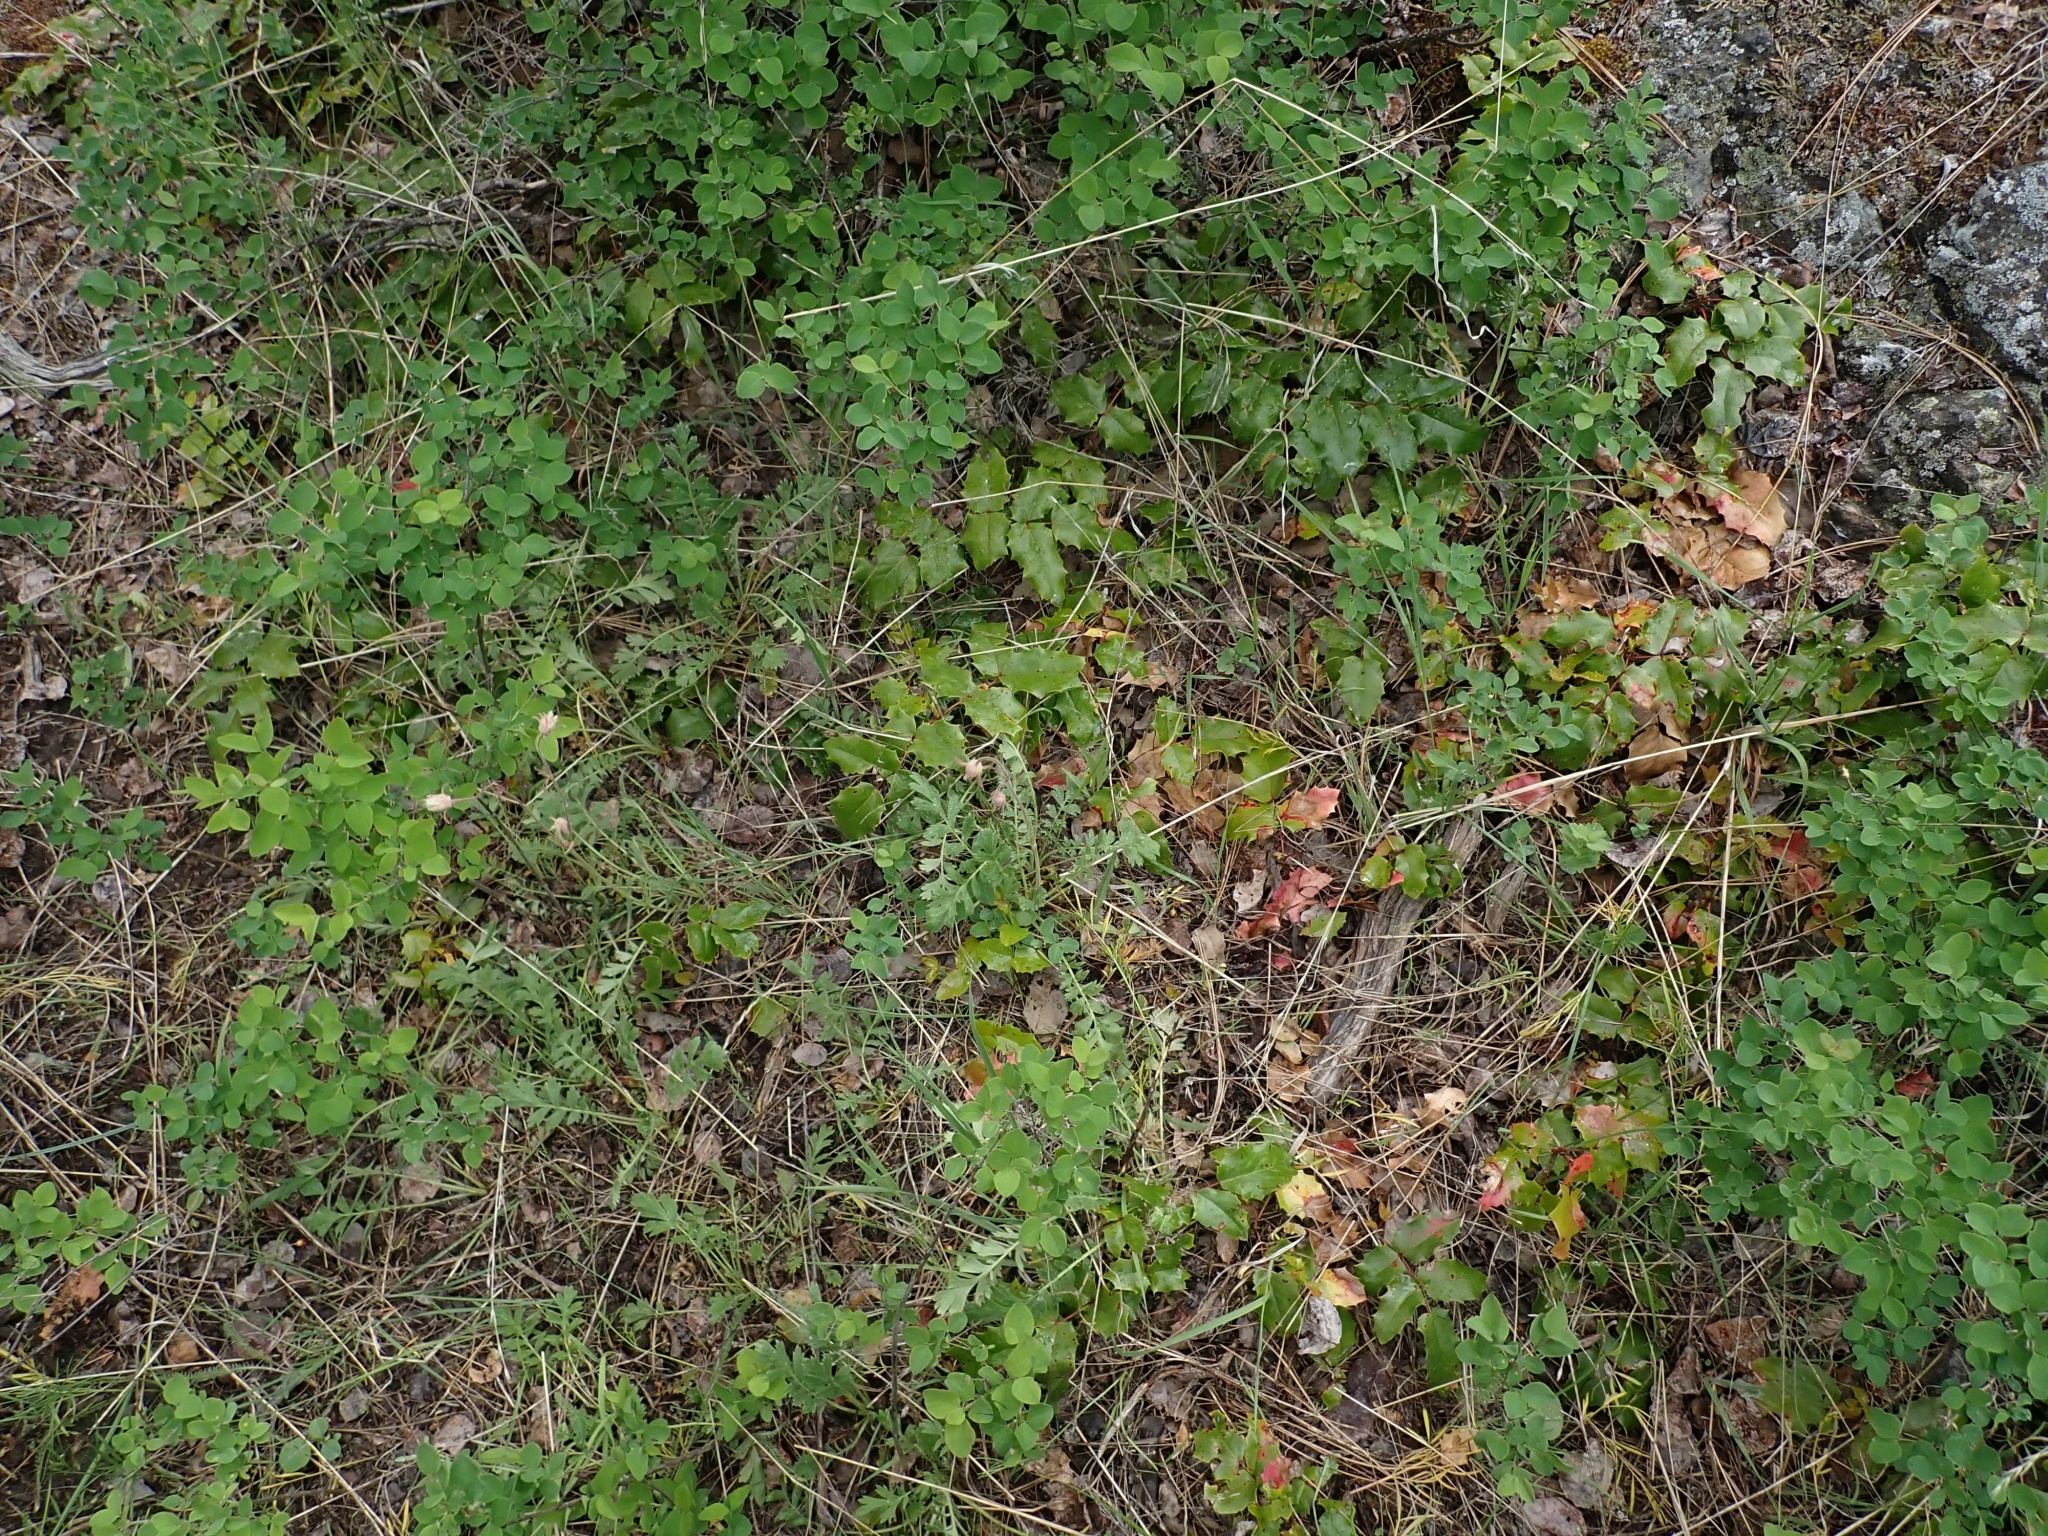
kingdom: Plantae
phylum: Tracheophyta
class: Magnoliopsida
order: Rosales
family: Rosaceae
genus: Geum
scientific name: Geum triflorum
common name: Old man's whiskers
